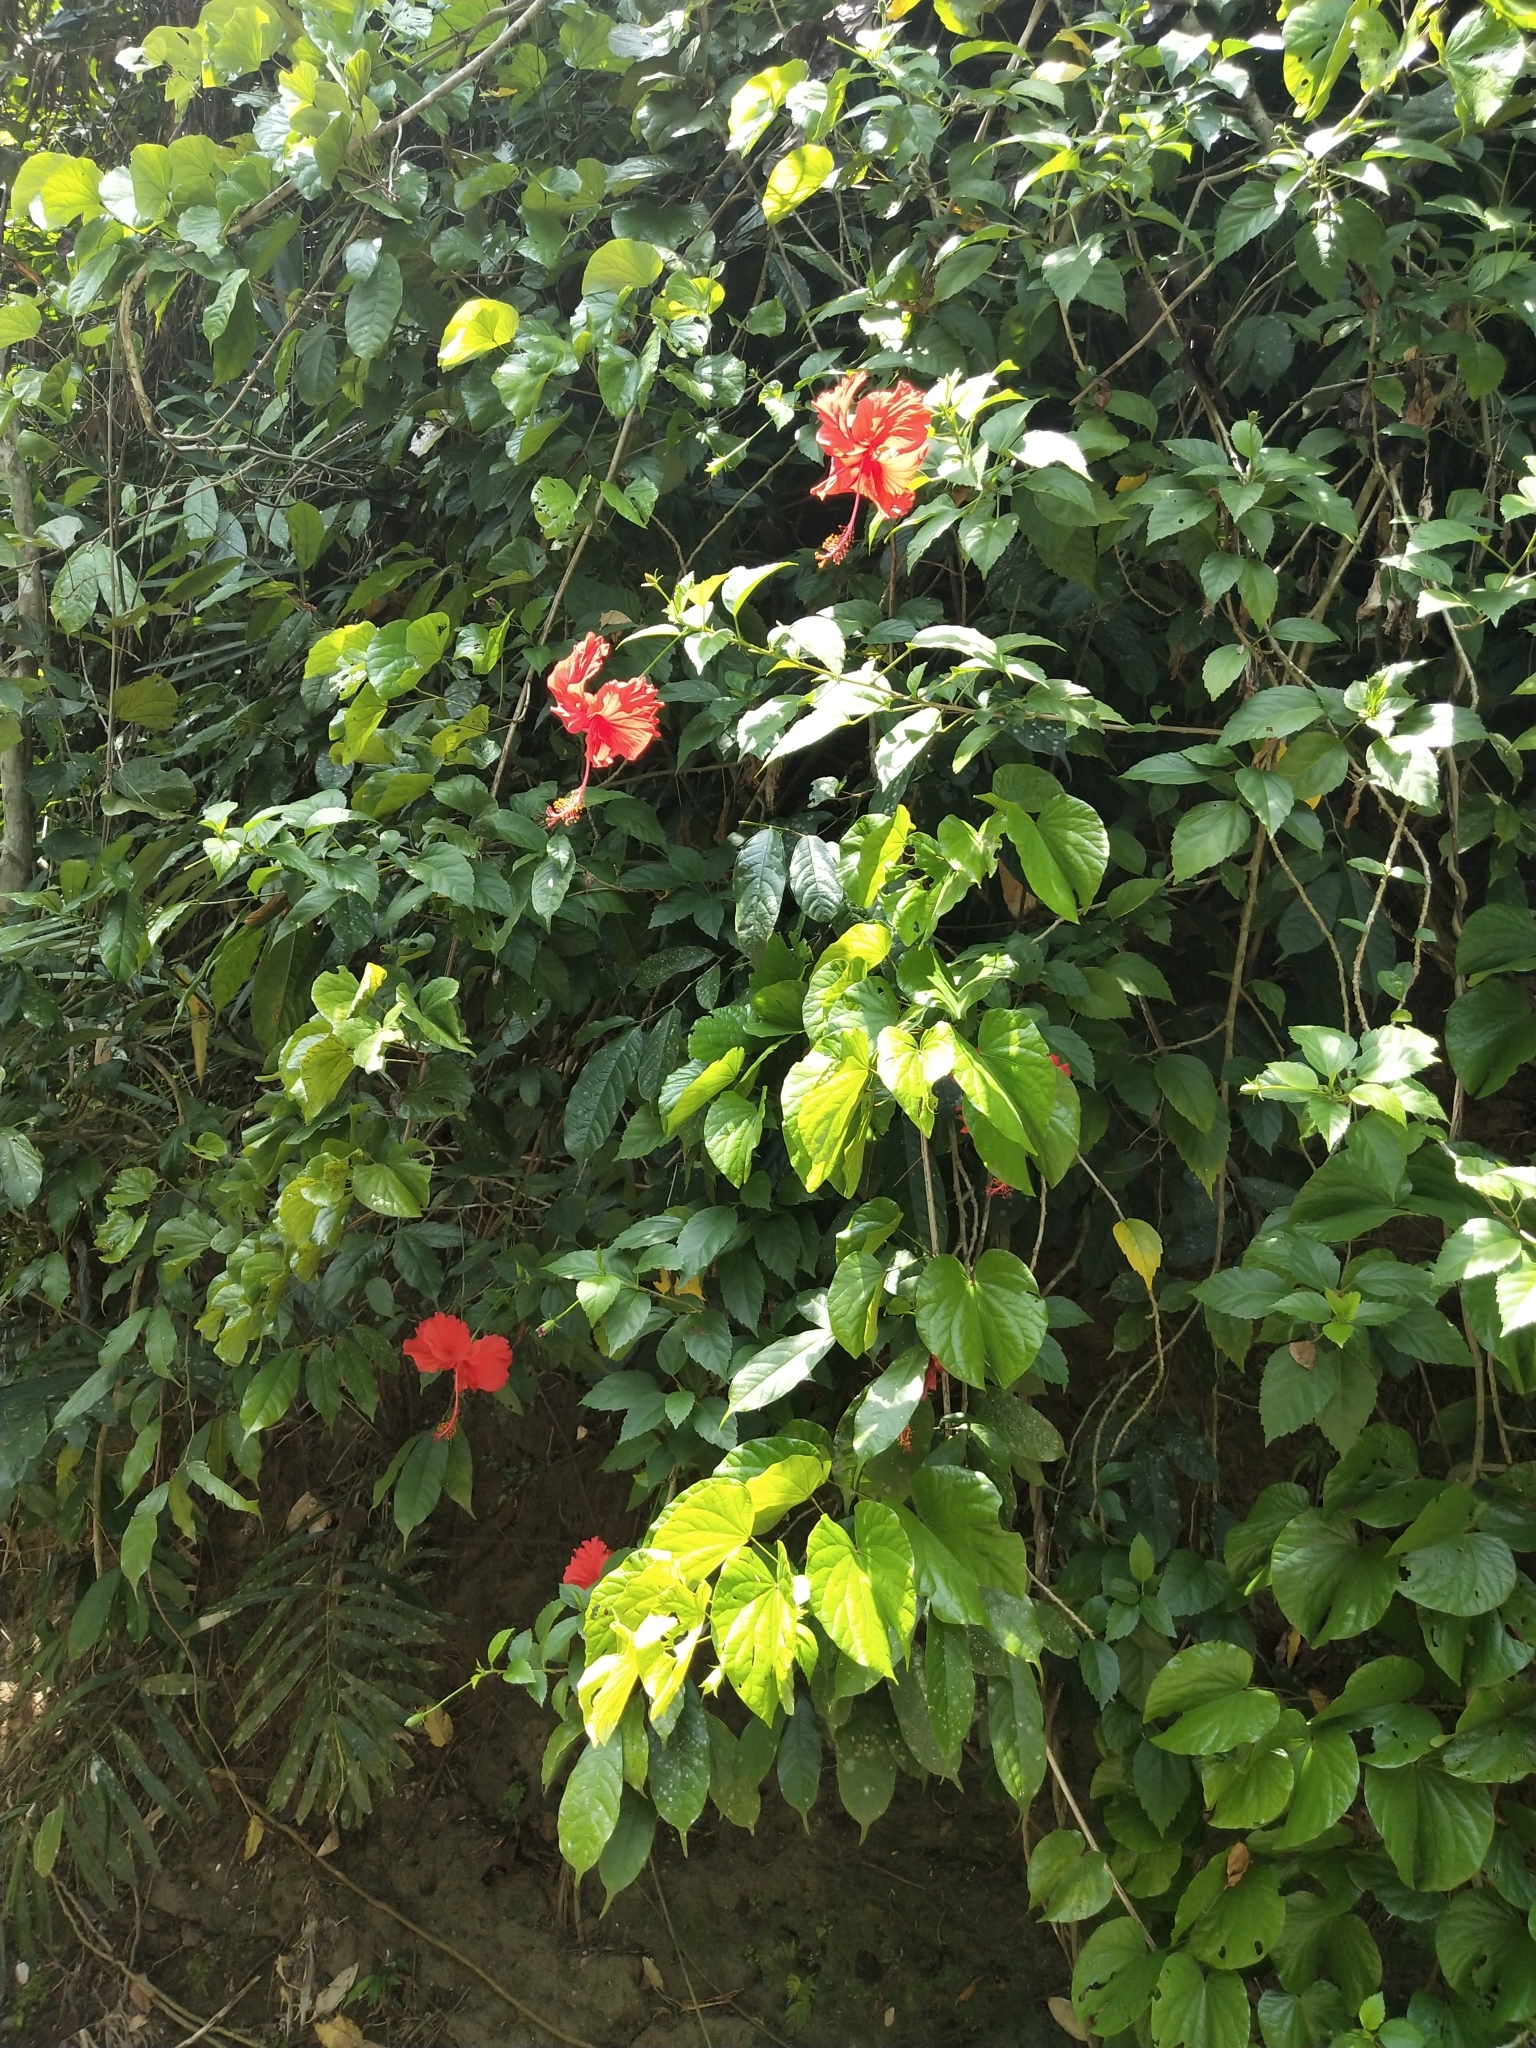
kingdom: Plantae
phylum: Tracheophyta
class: Magnoliopsida
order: Malvales
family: Malvaceae
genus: Hibiscus
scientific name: Hibiscus archeri
